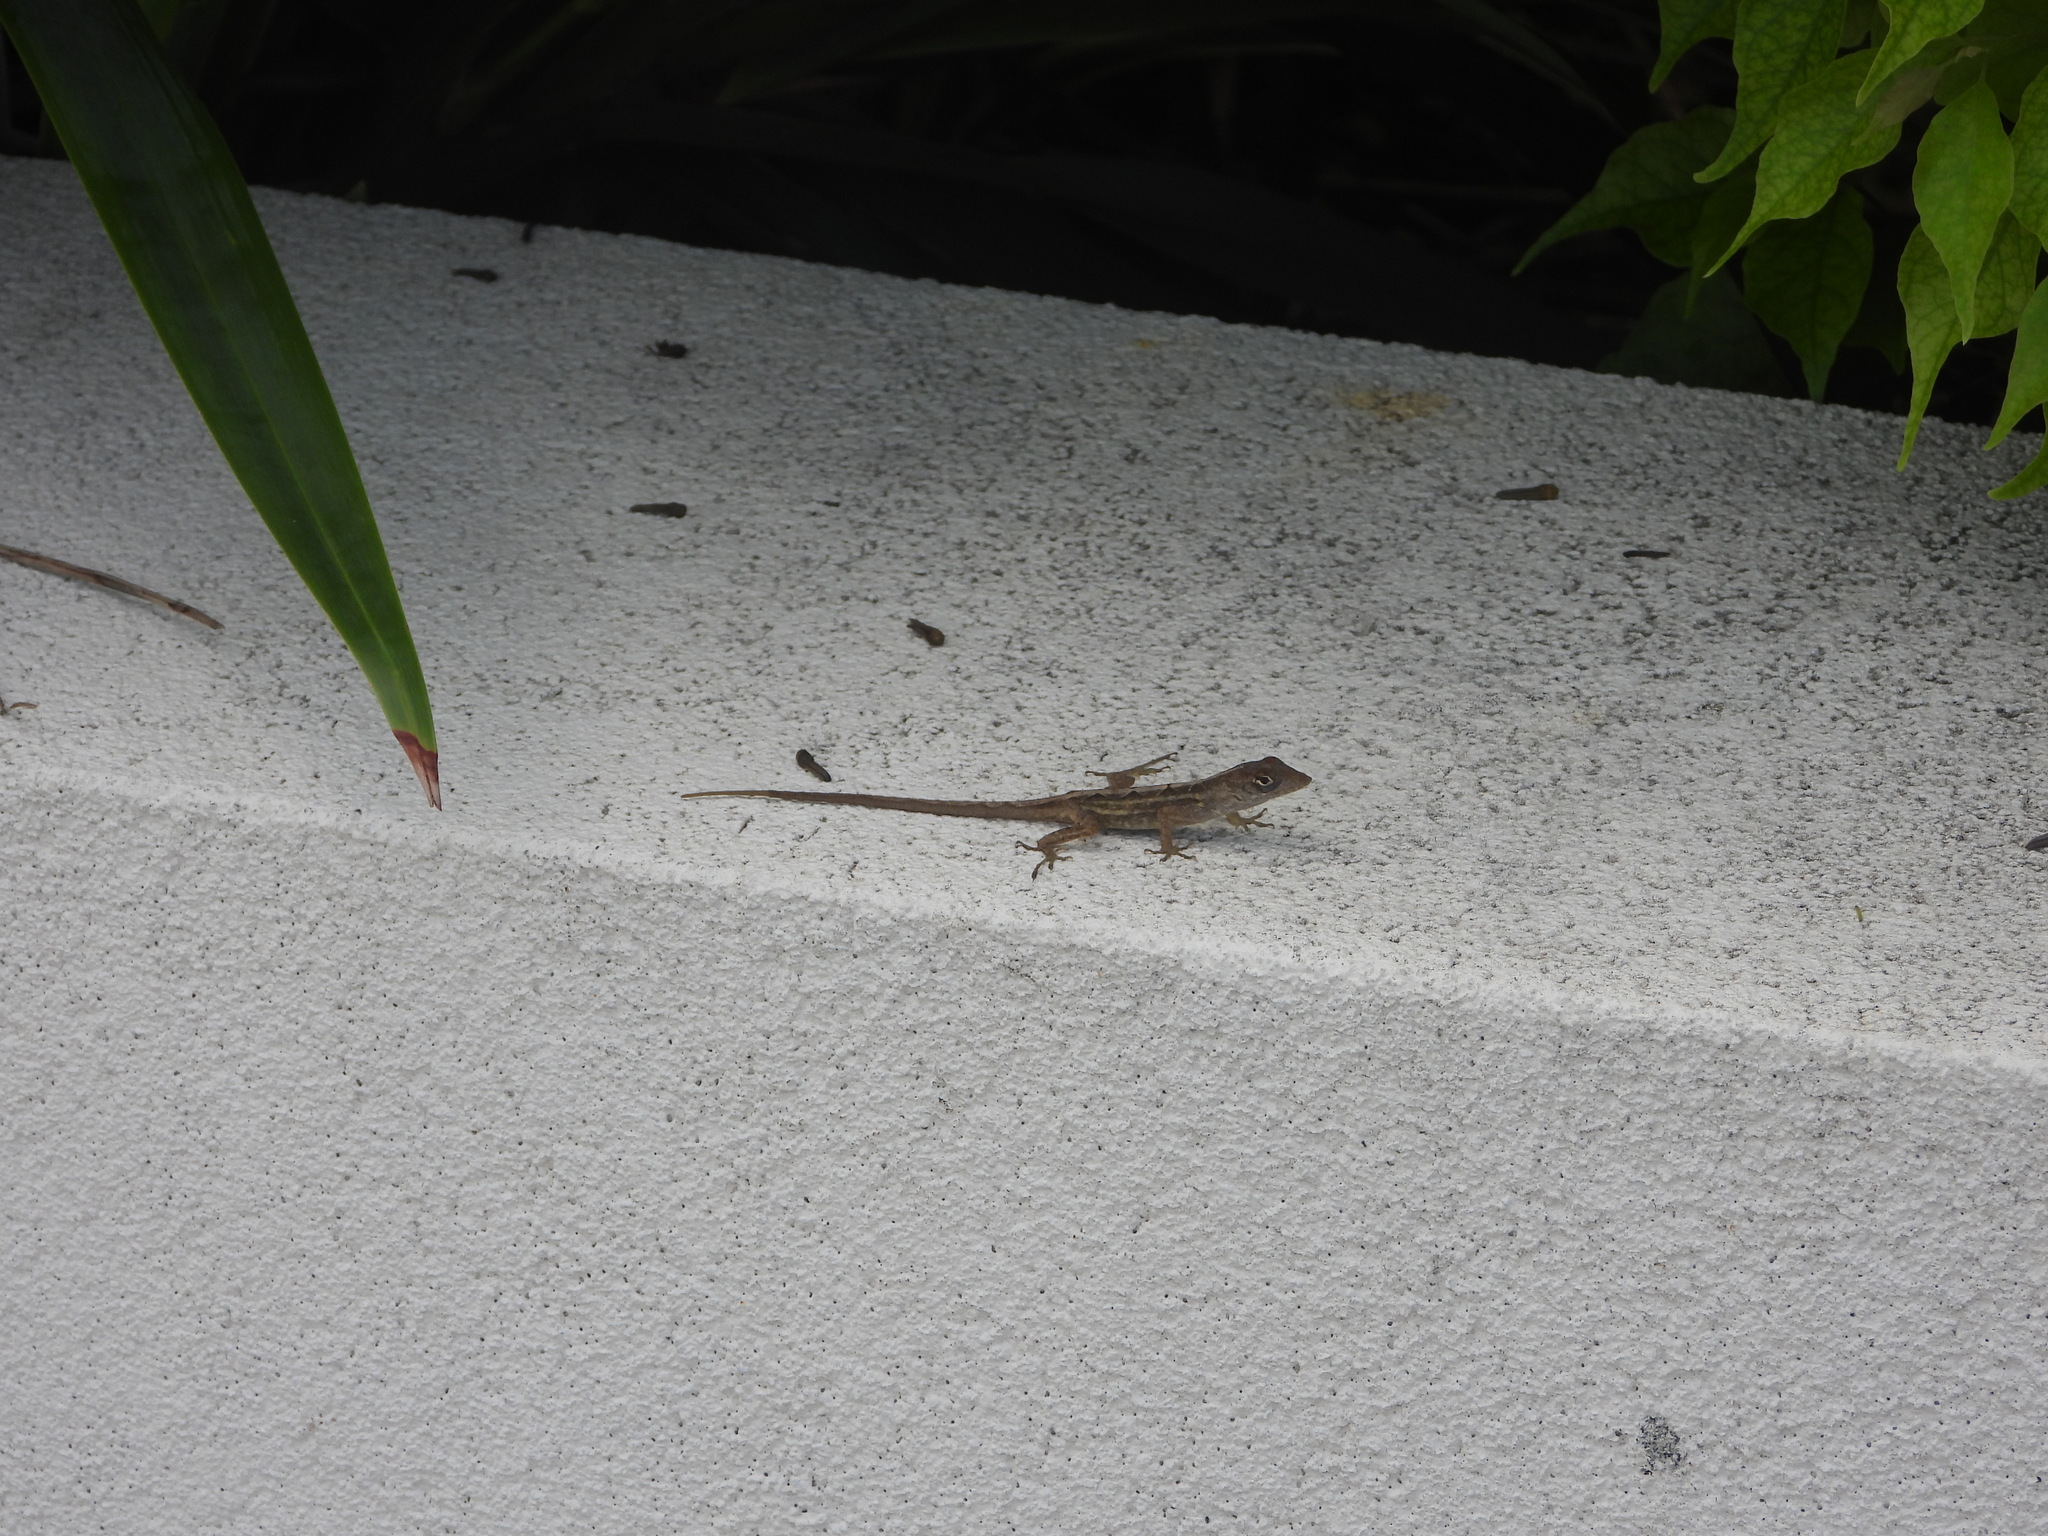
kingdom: Animalia
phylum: Chordata
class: Squamata
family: Dactyloidae
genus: Anolis
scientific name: Anolis sagrei
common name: Brown anole
